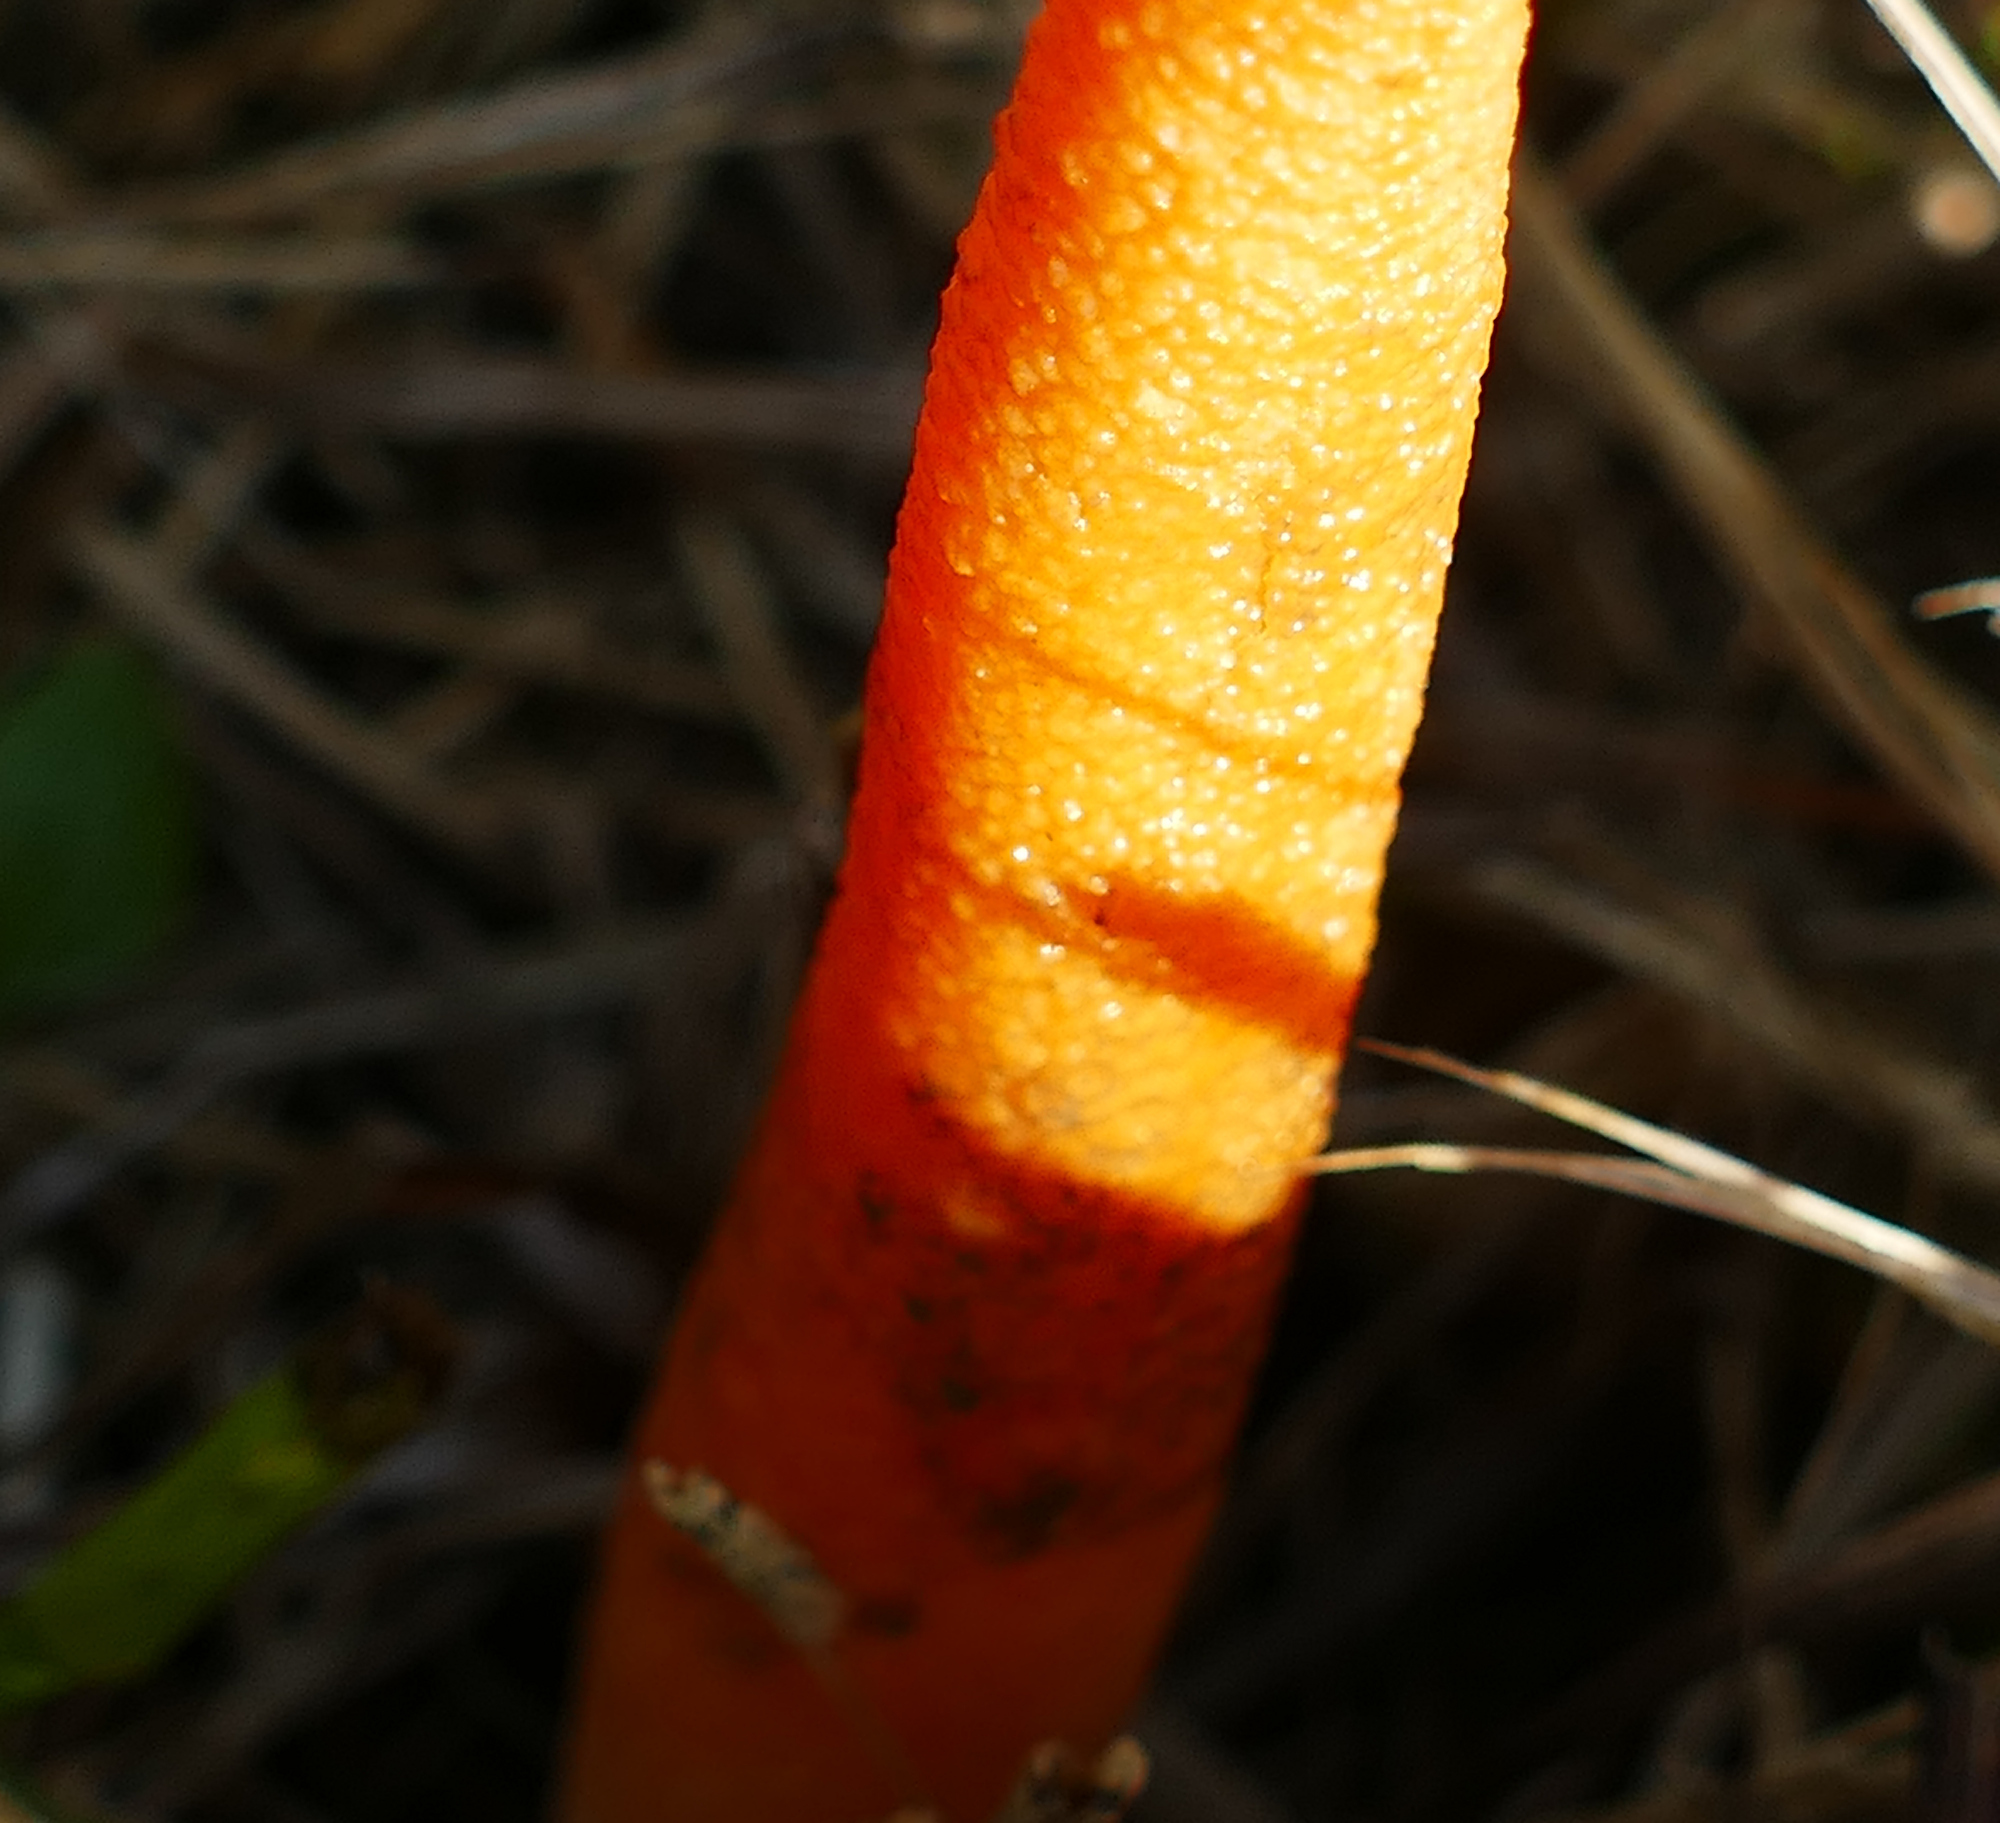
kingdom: Fungi
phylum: Basidiomycota
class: Agaricomycetes
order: Phallales
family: Phallaceae
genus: Mutinus
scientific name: Mutinus elegans
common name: Devil's dipstick
